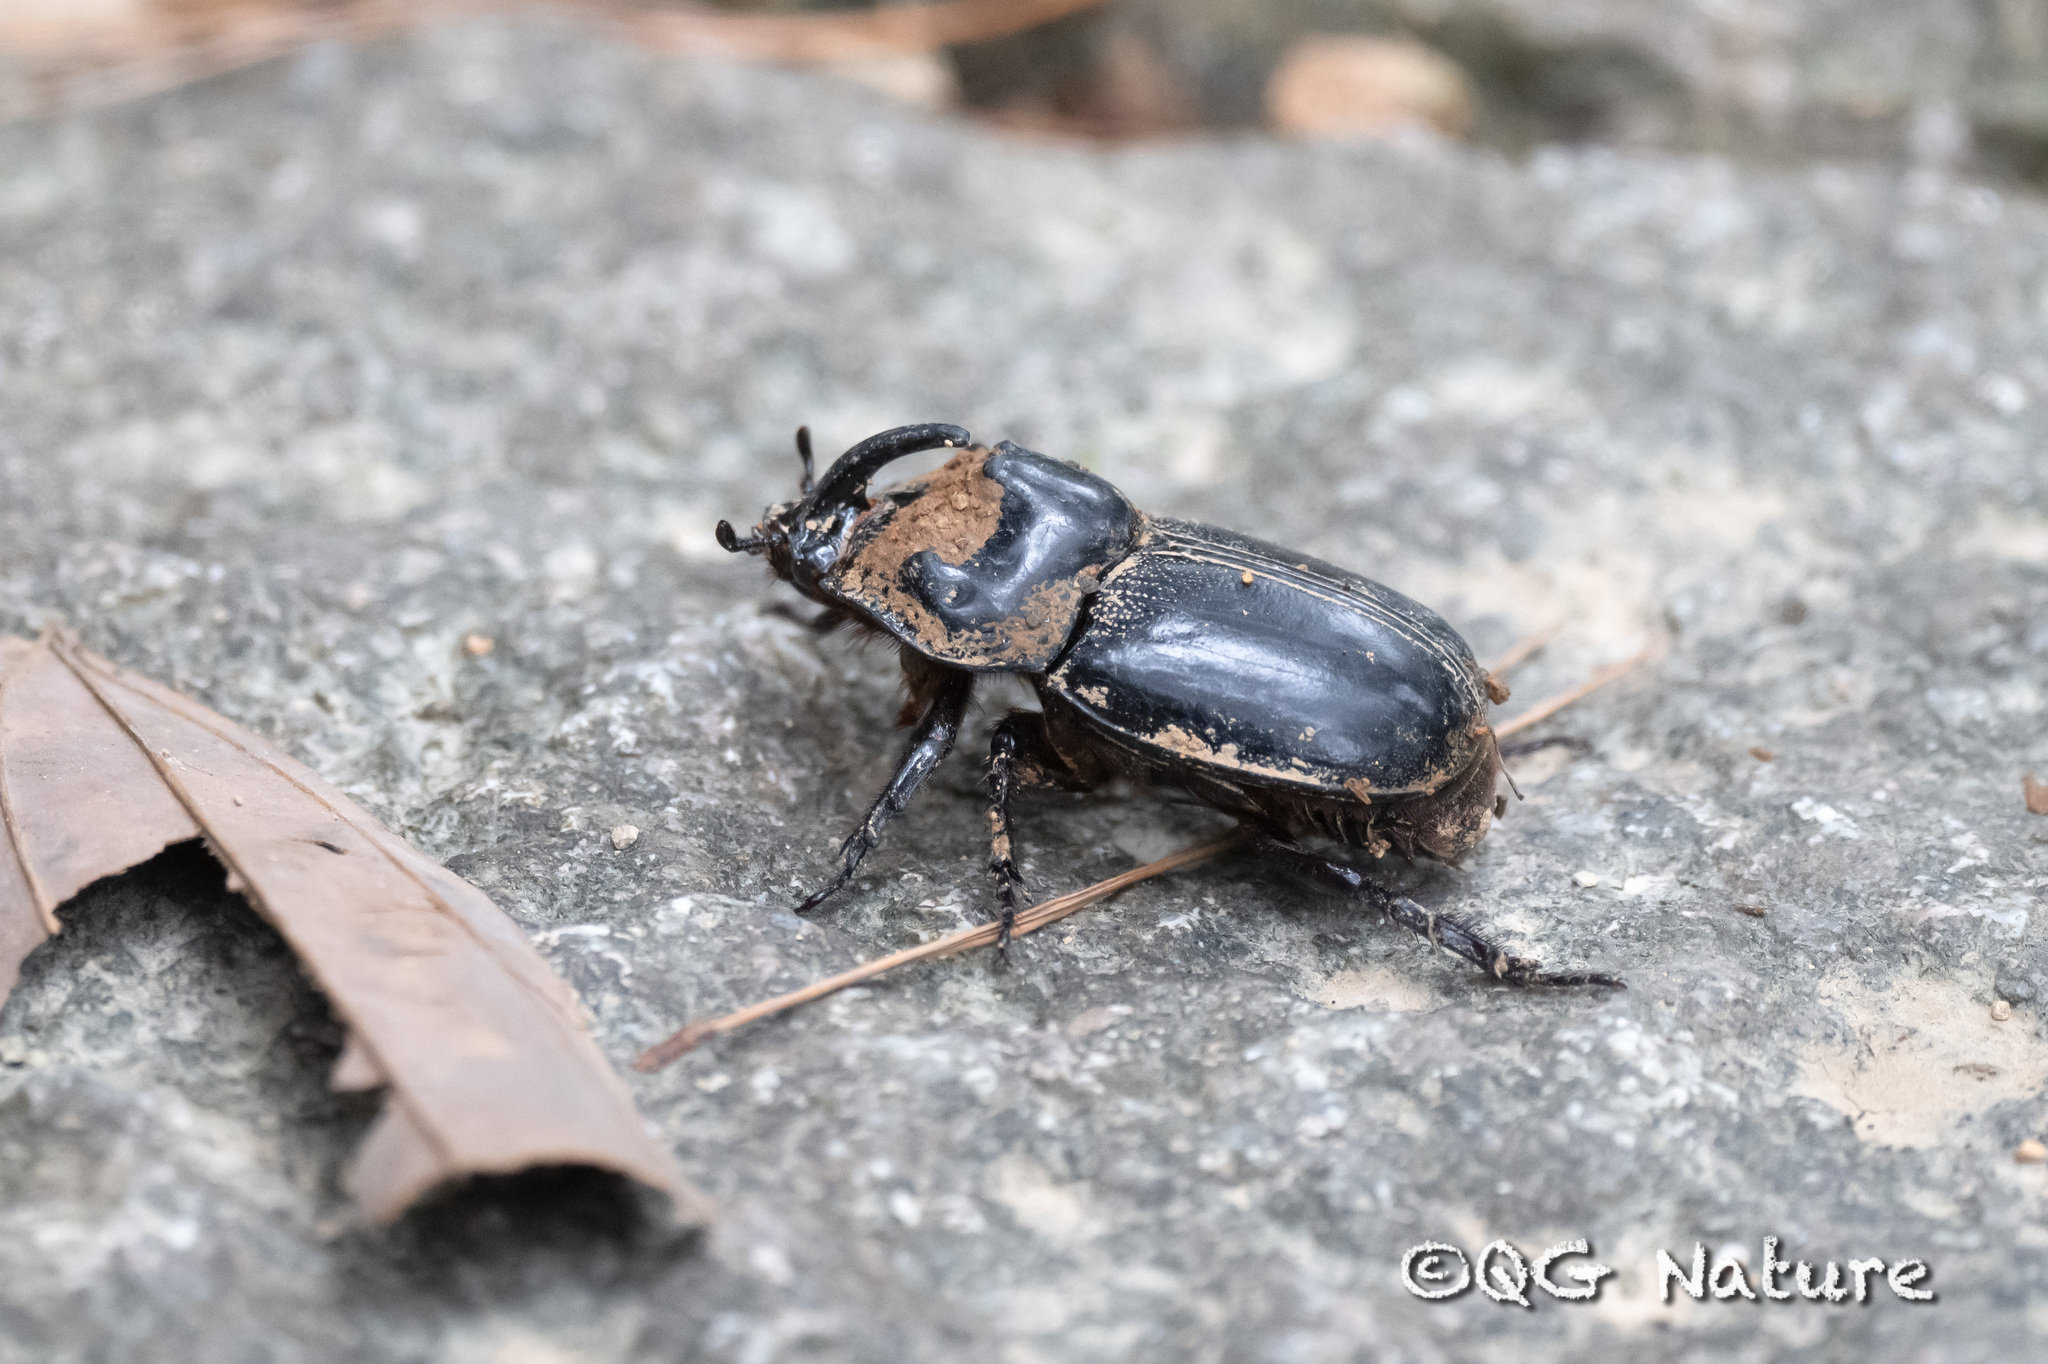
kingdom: Animalia
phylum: Arthropoda
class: Insecta
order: Coleoptera
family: Scarabaeidae
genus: Trichogomphus
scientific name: Trichogomphus mongol
